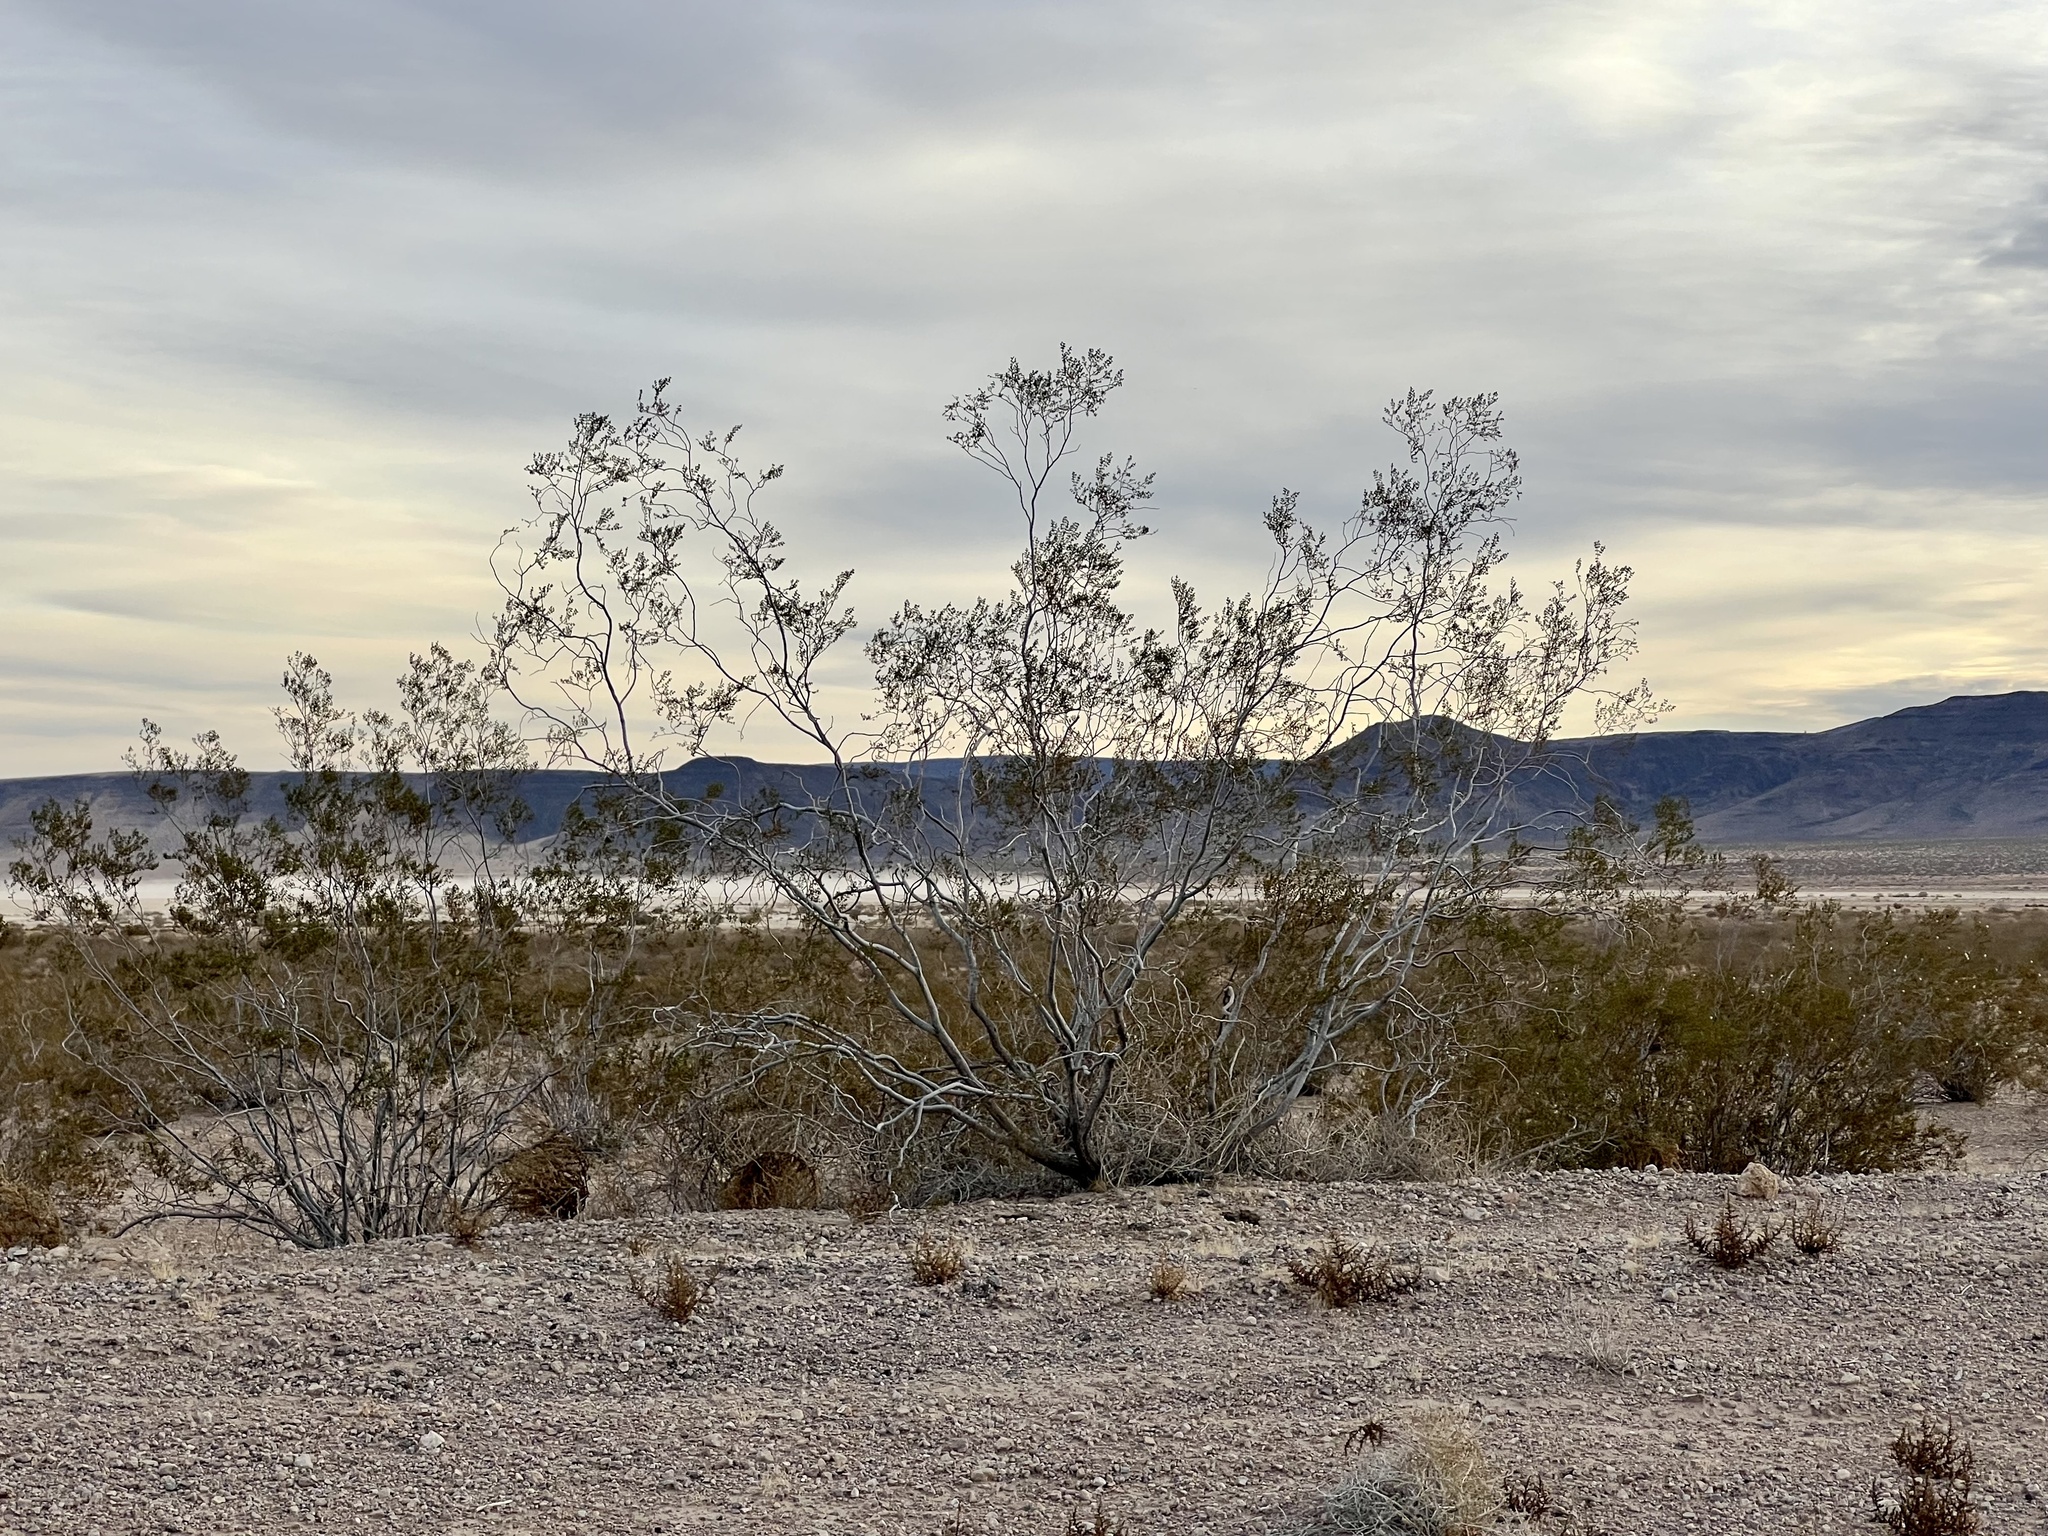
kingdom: Plantae
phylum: Tracheophyta
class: Magnoliopsida
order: Zygophyllales
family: Zygophyllaceae
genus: Larrea
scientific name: Larrea tridentata
